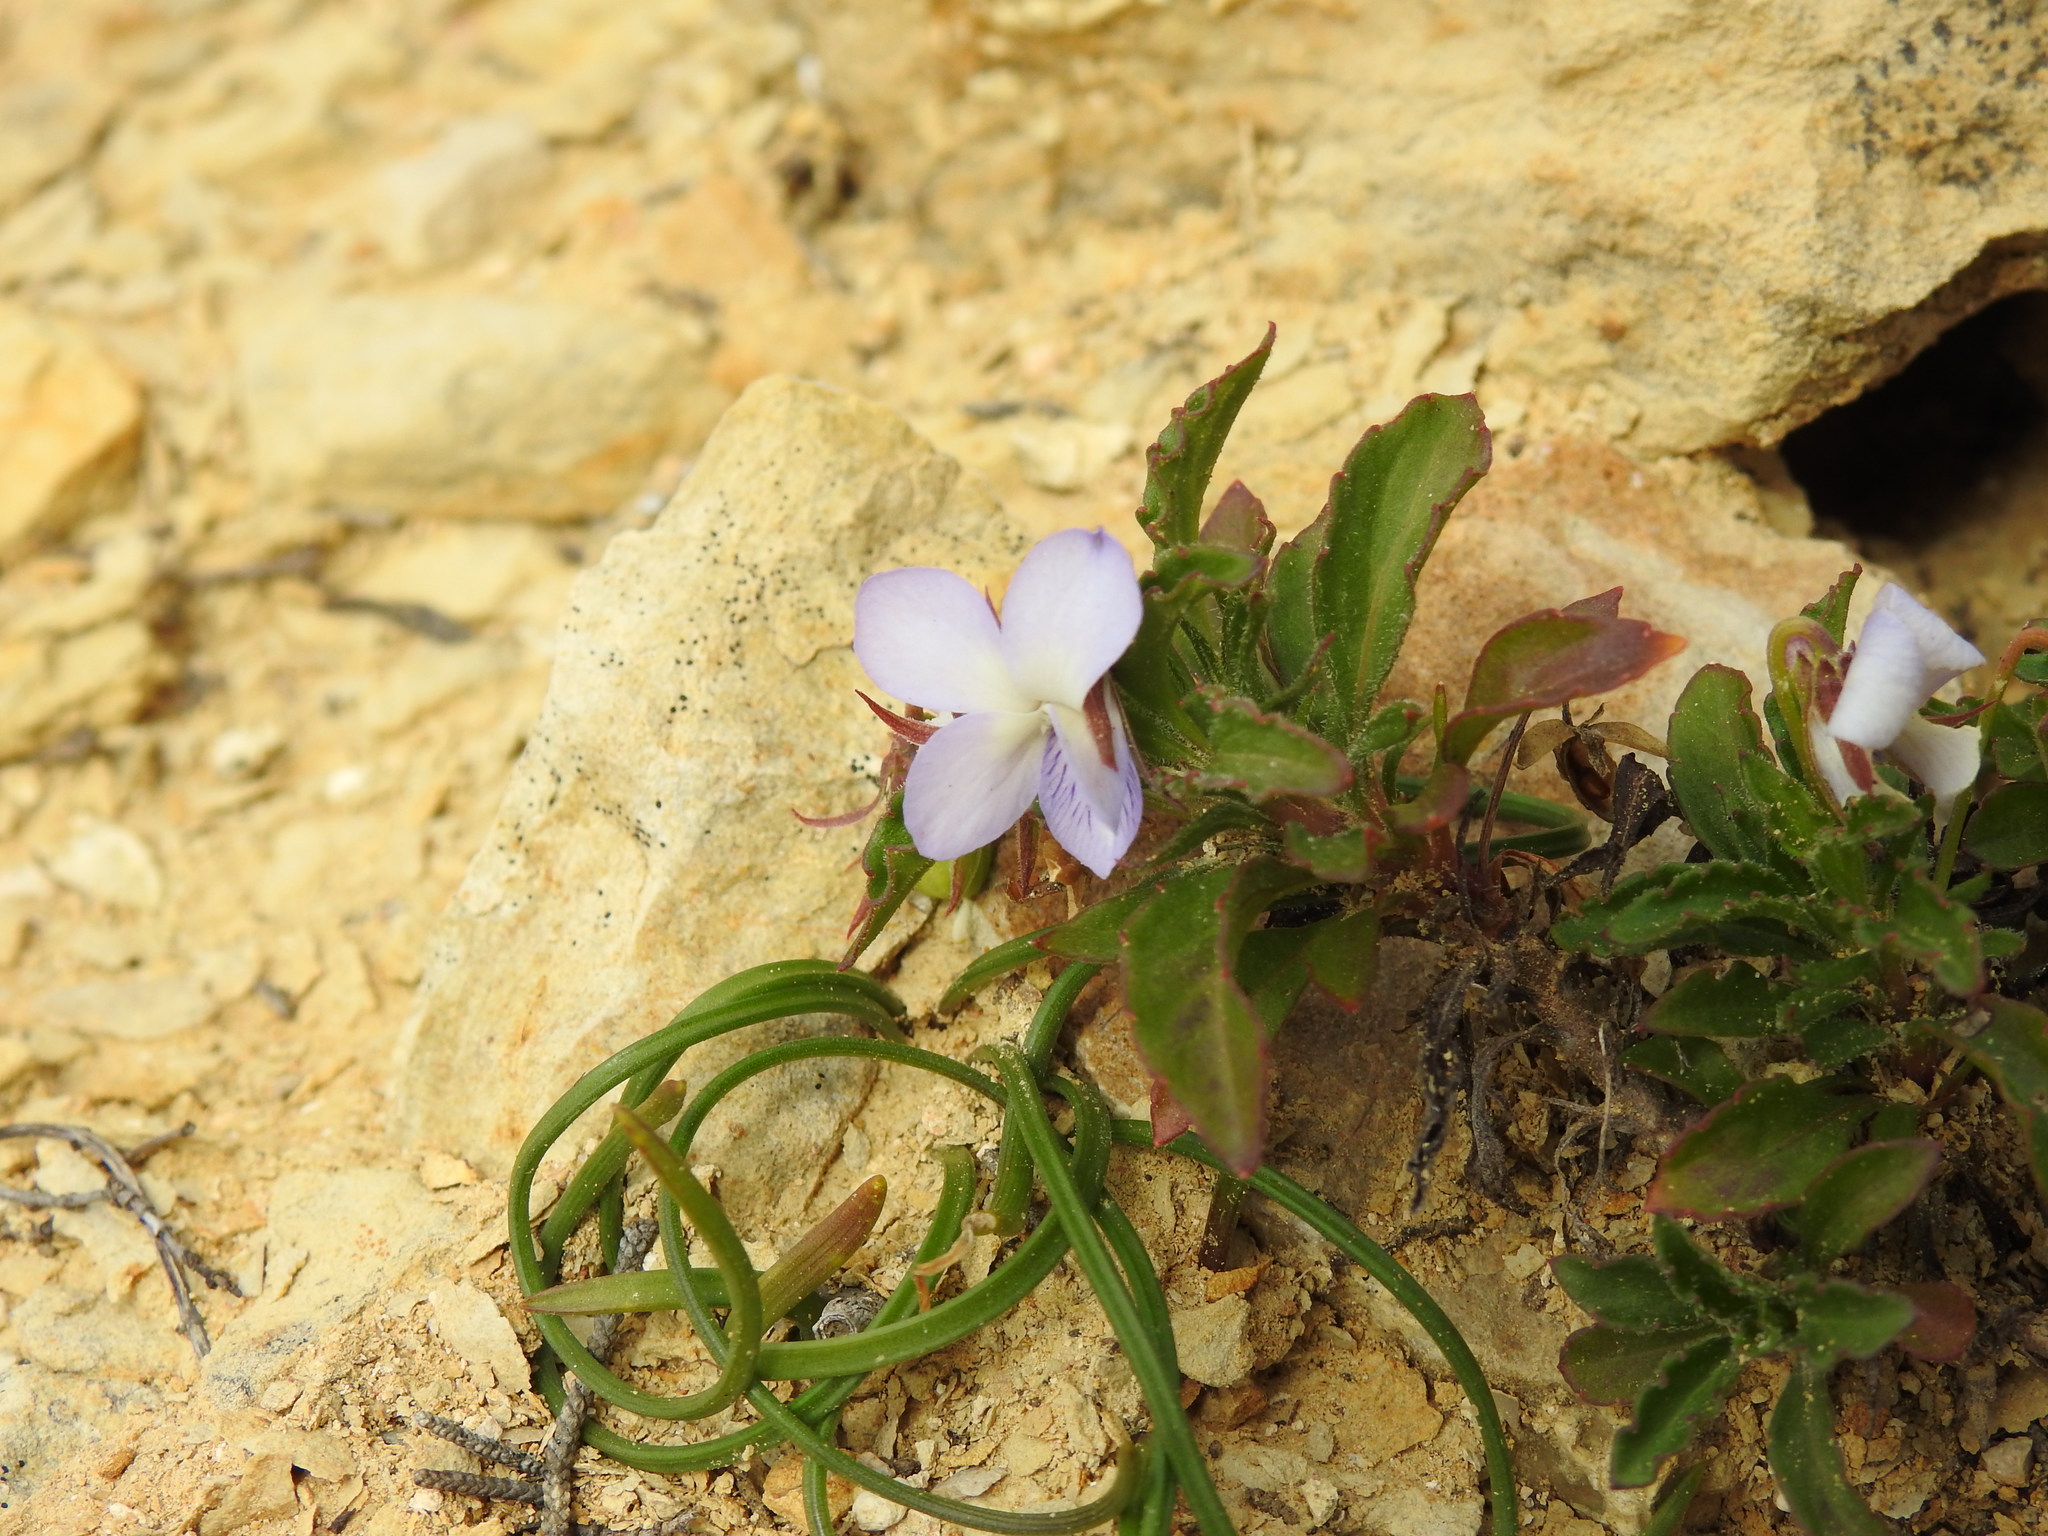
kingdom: Plantae
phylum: Tracheophyta
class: Magnoliopsida
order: Malpighiales
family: Violaceae
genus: Viola
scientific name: Viola arborescens
